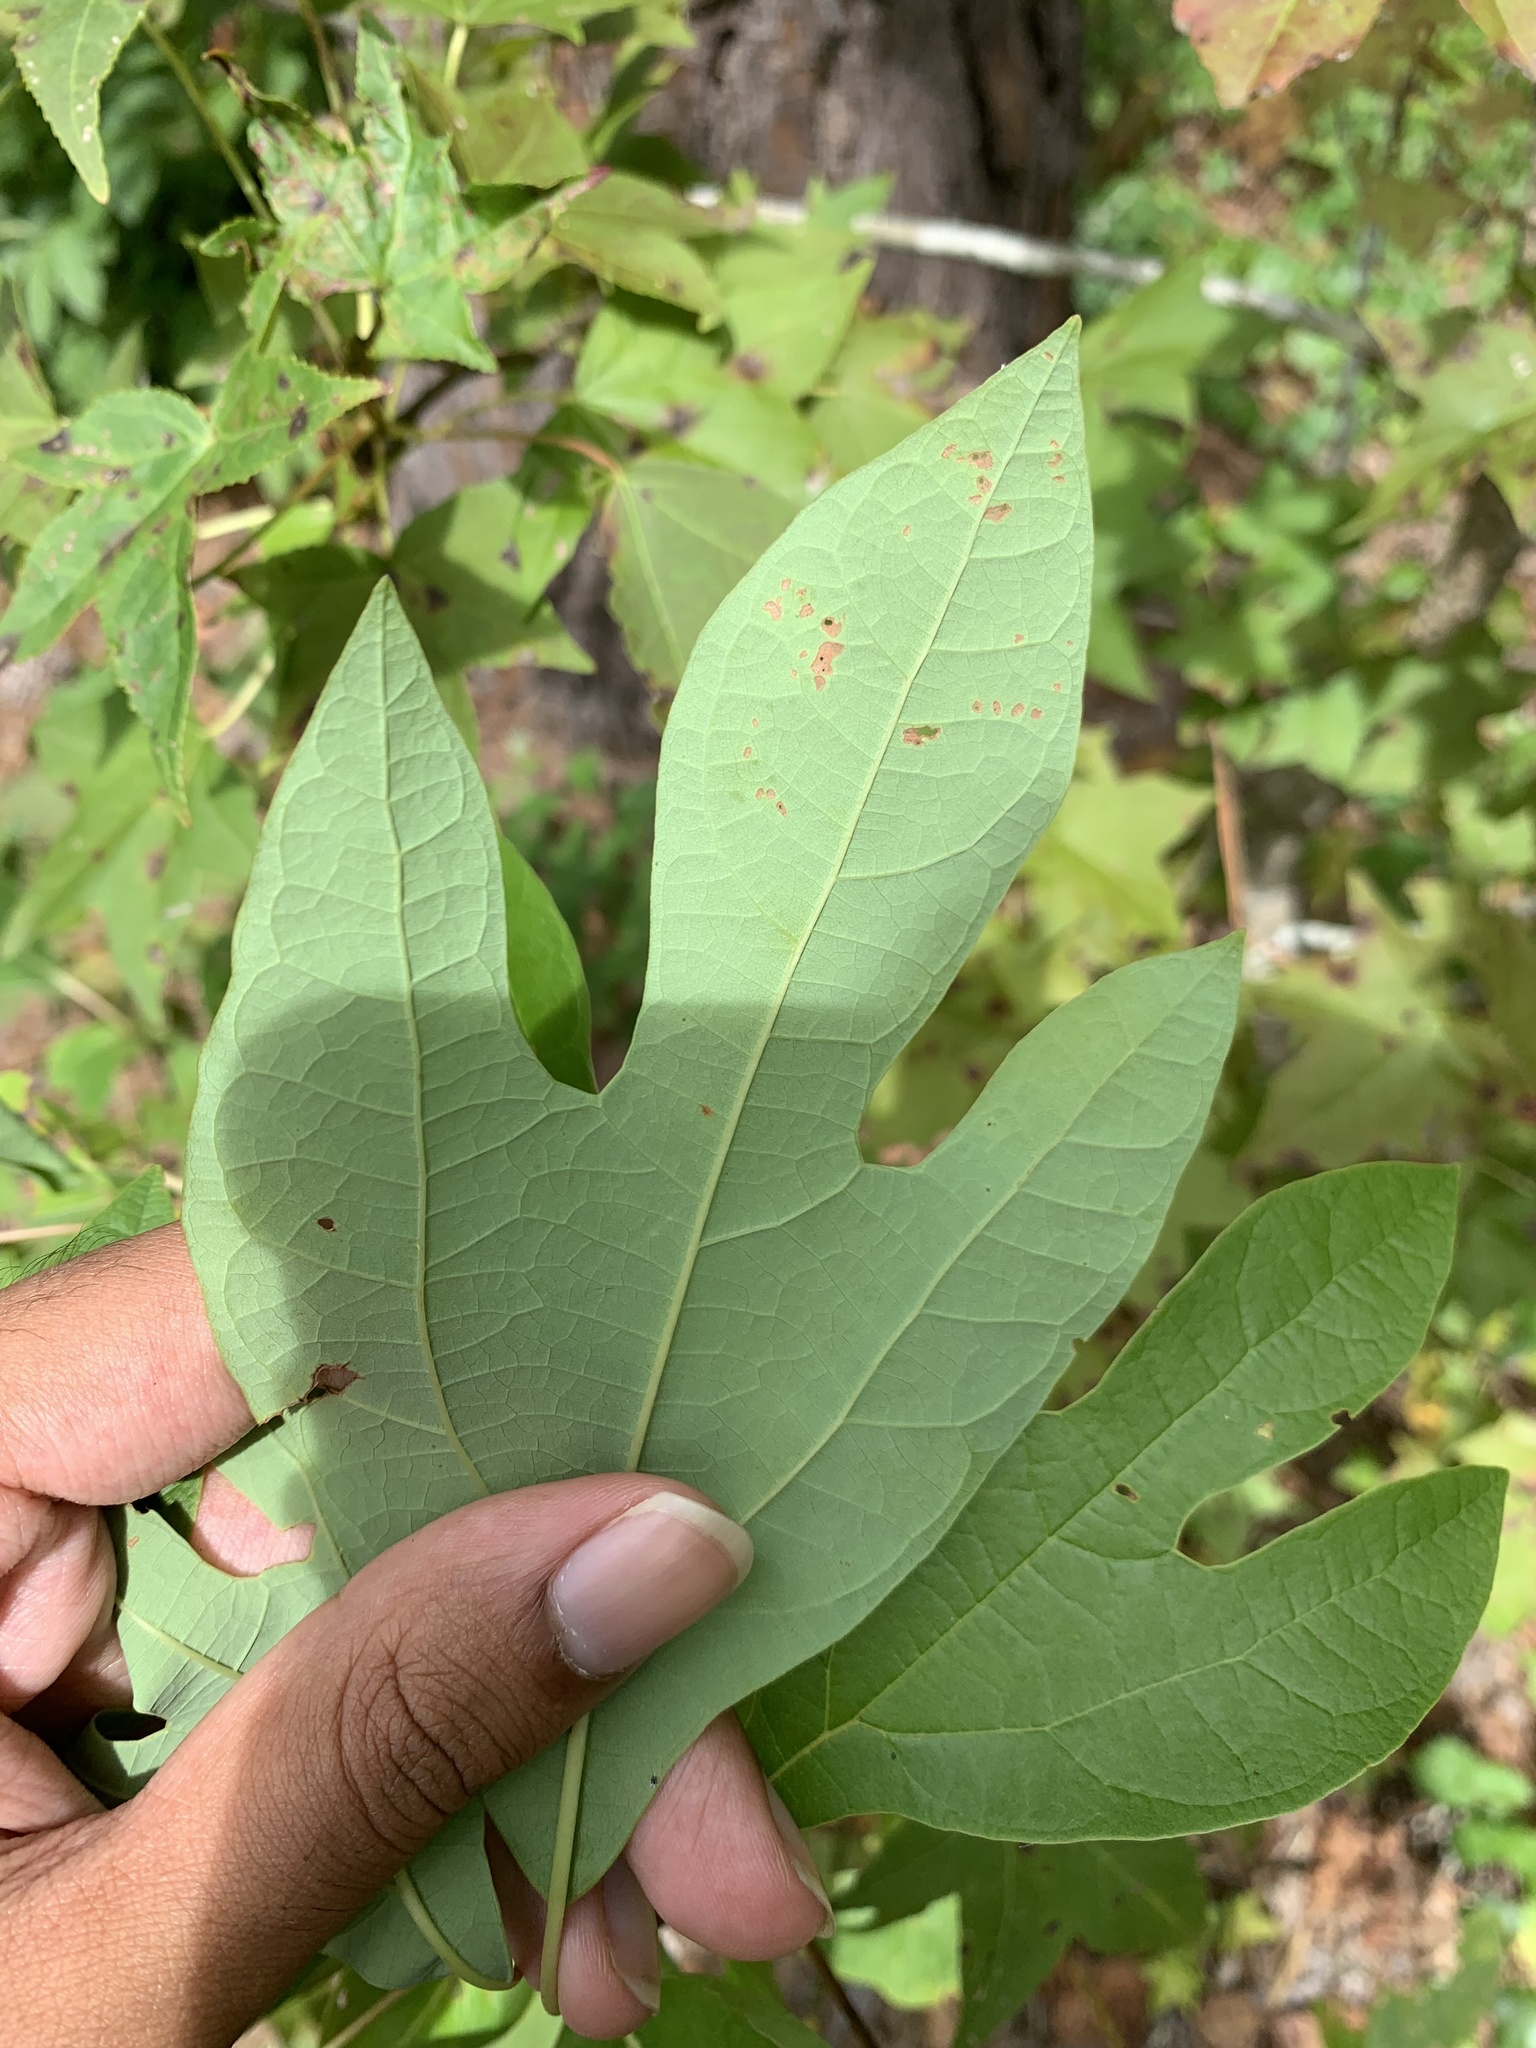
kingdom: Plantae
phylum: Tracheophyta
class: Magnoliopsida
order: Laurales
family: Lauraceae
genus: Sassafras
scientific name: Sassafras albidum
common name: Sassafras
